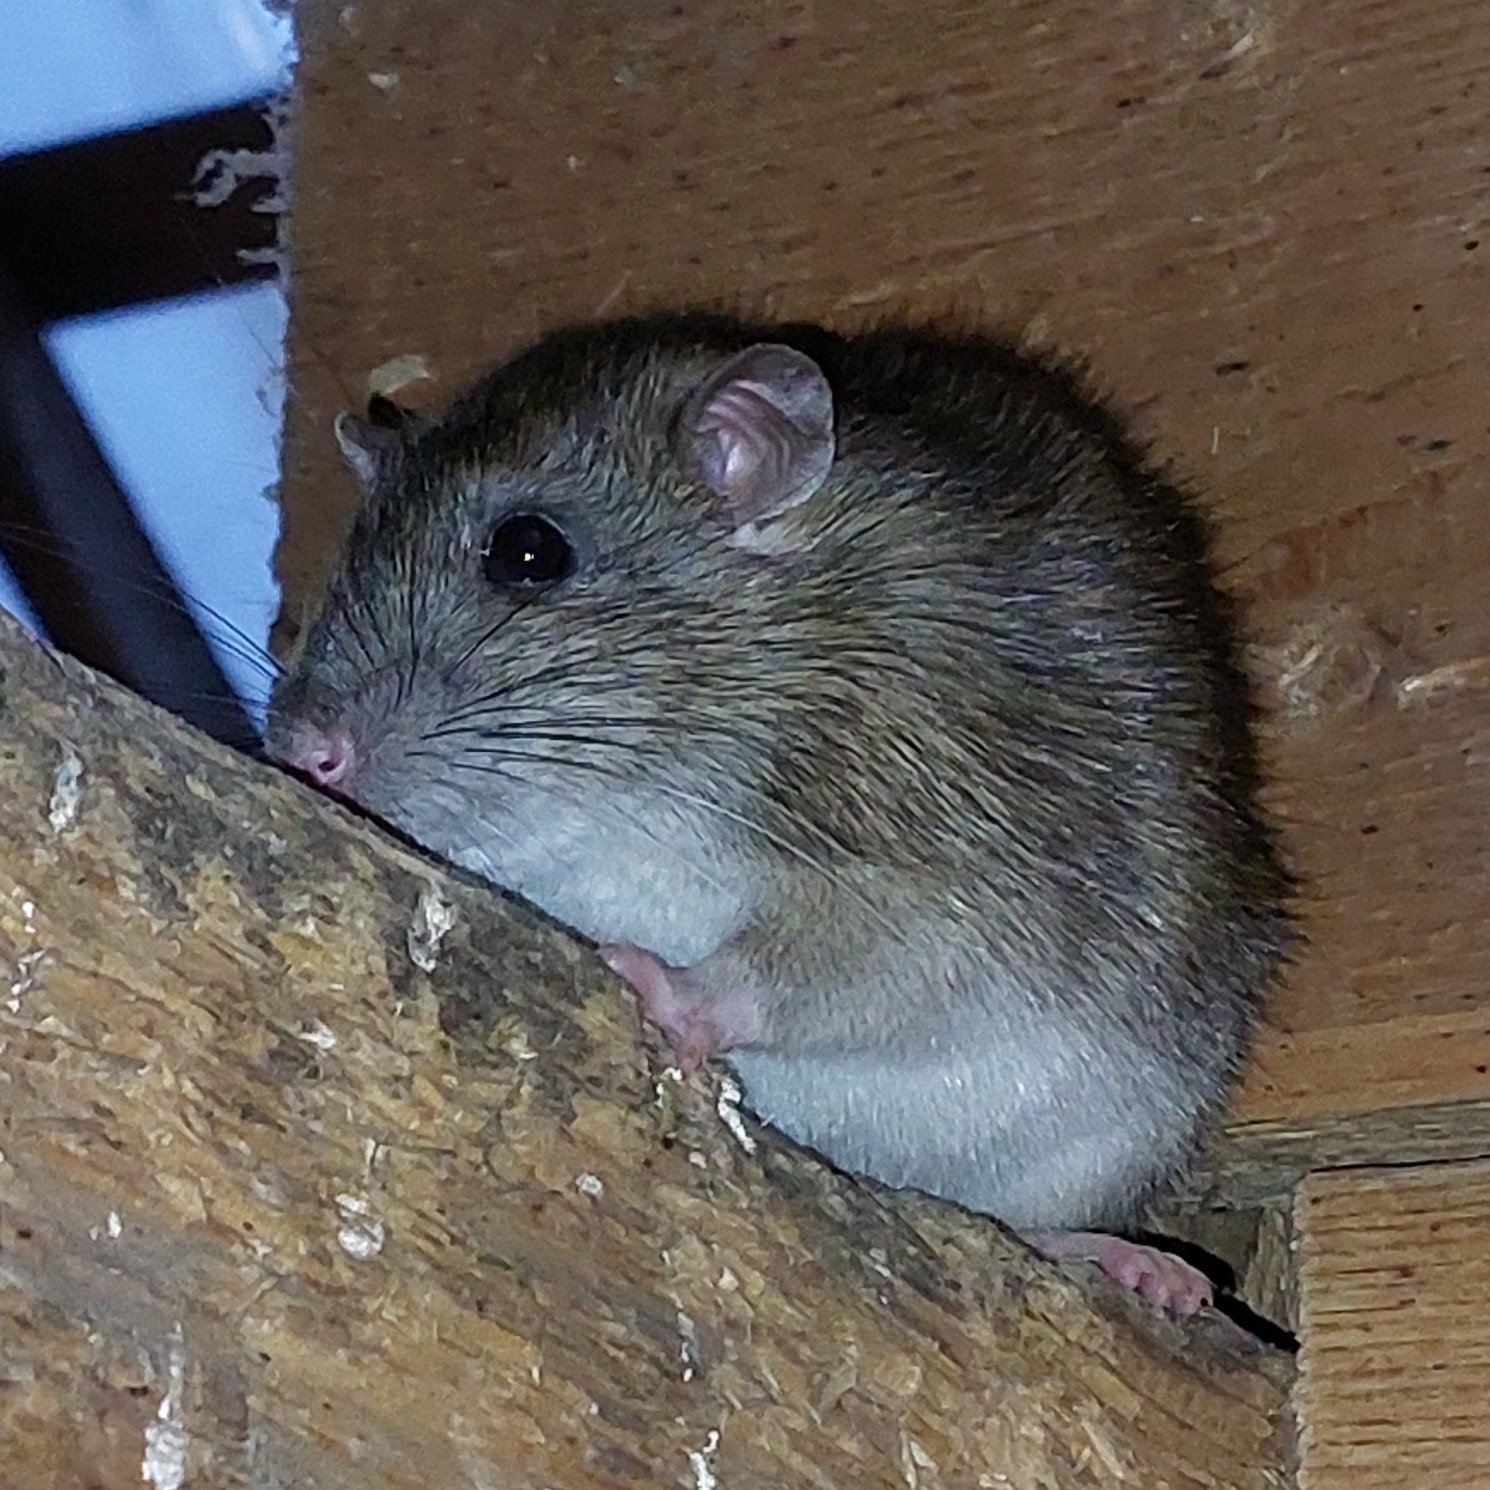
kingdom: Animalia
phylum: Chordata
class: Mammalia
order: Rodentia
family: Muridae
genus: Rattus
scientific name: Rattus norvegicus
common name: Brown rat
